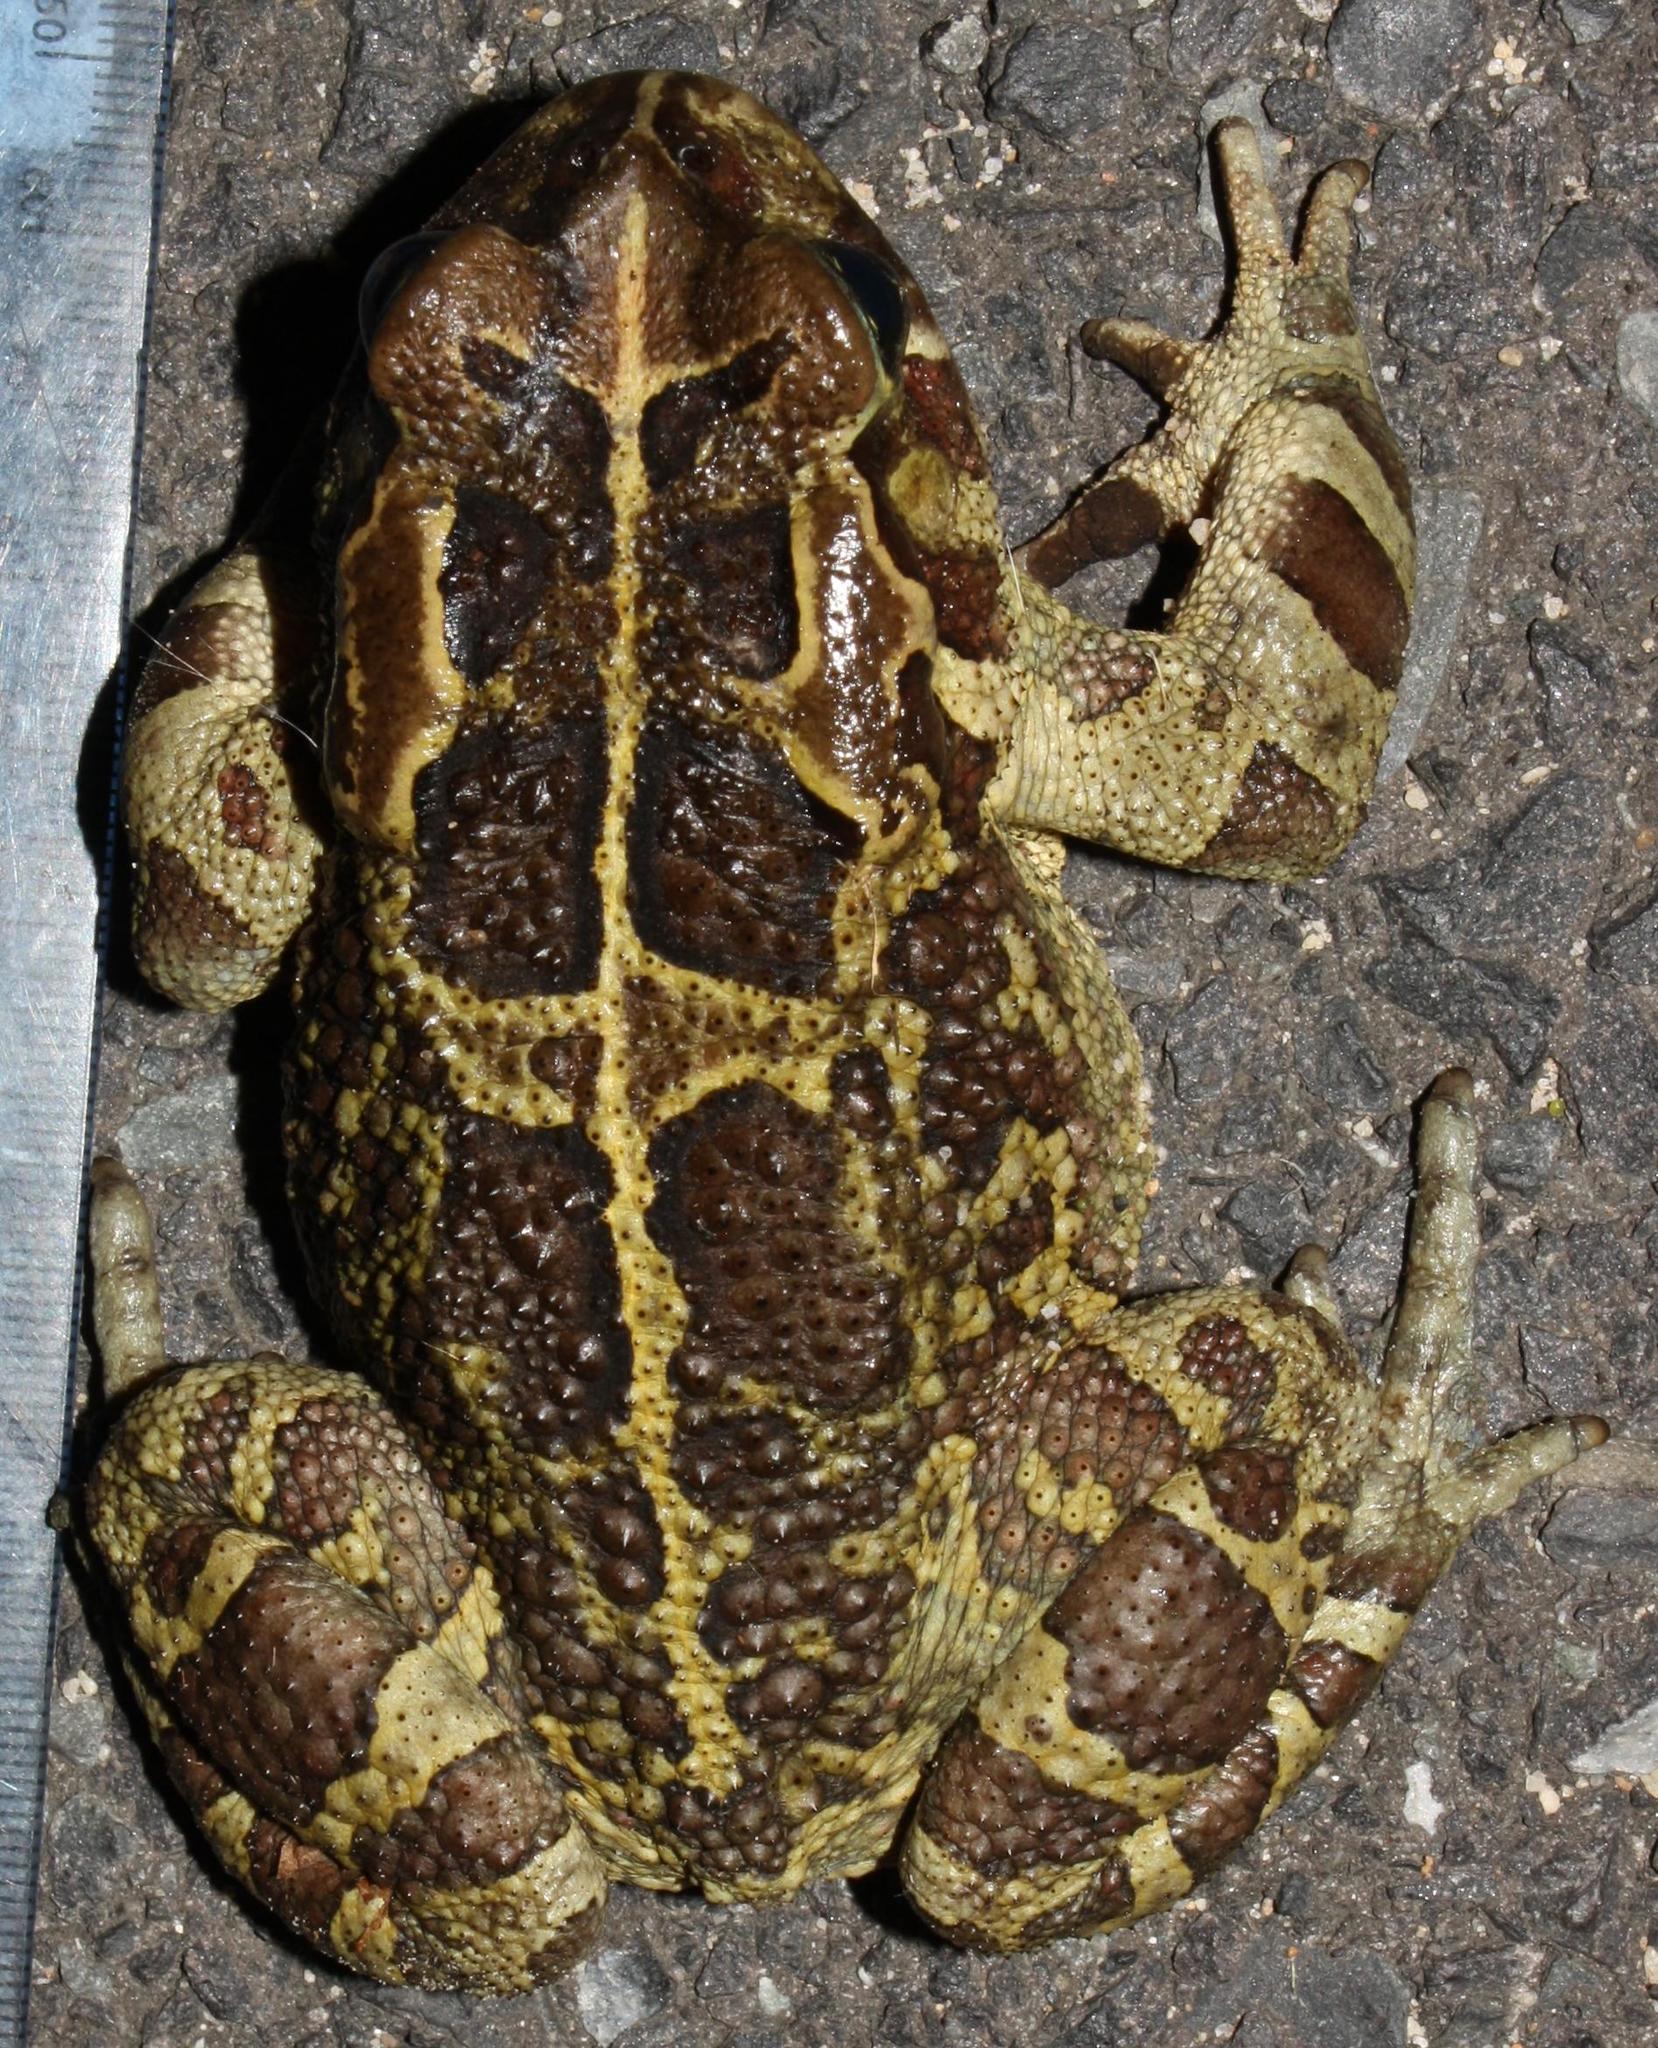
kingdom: Animalia
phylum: Chordata
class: Amphibia
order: Anura
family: Bufonidae
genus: Sclerophrys
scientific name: Sclerophrys pantherina
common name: Panther toad
